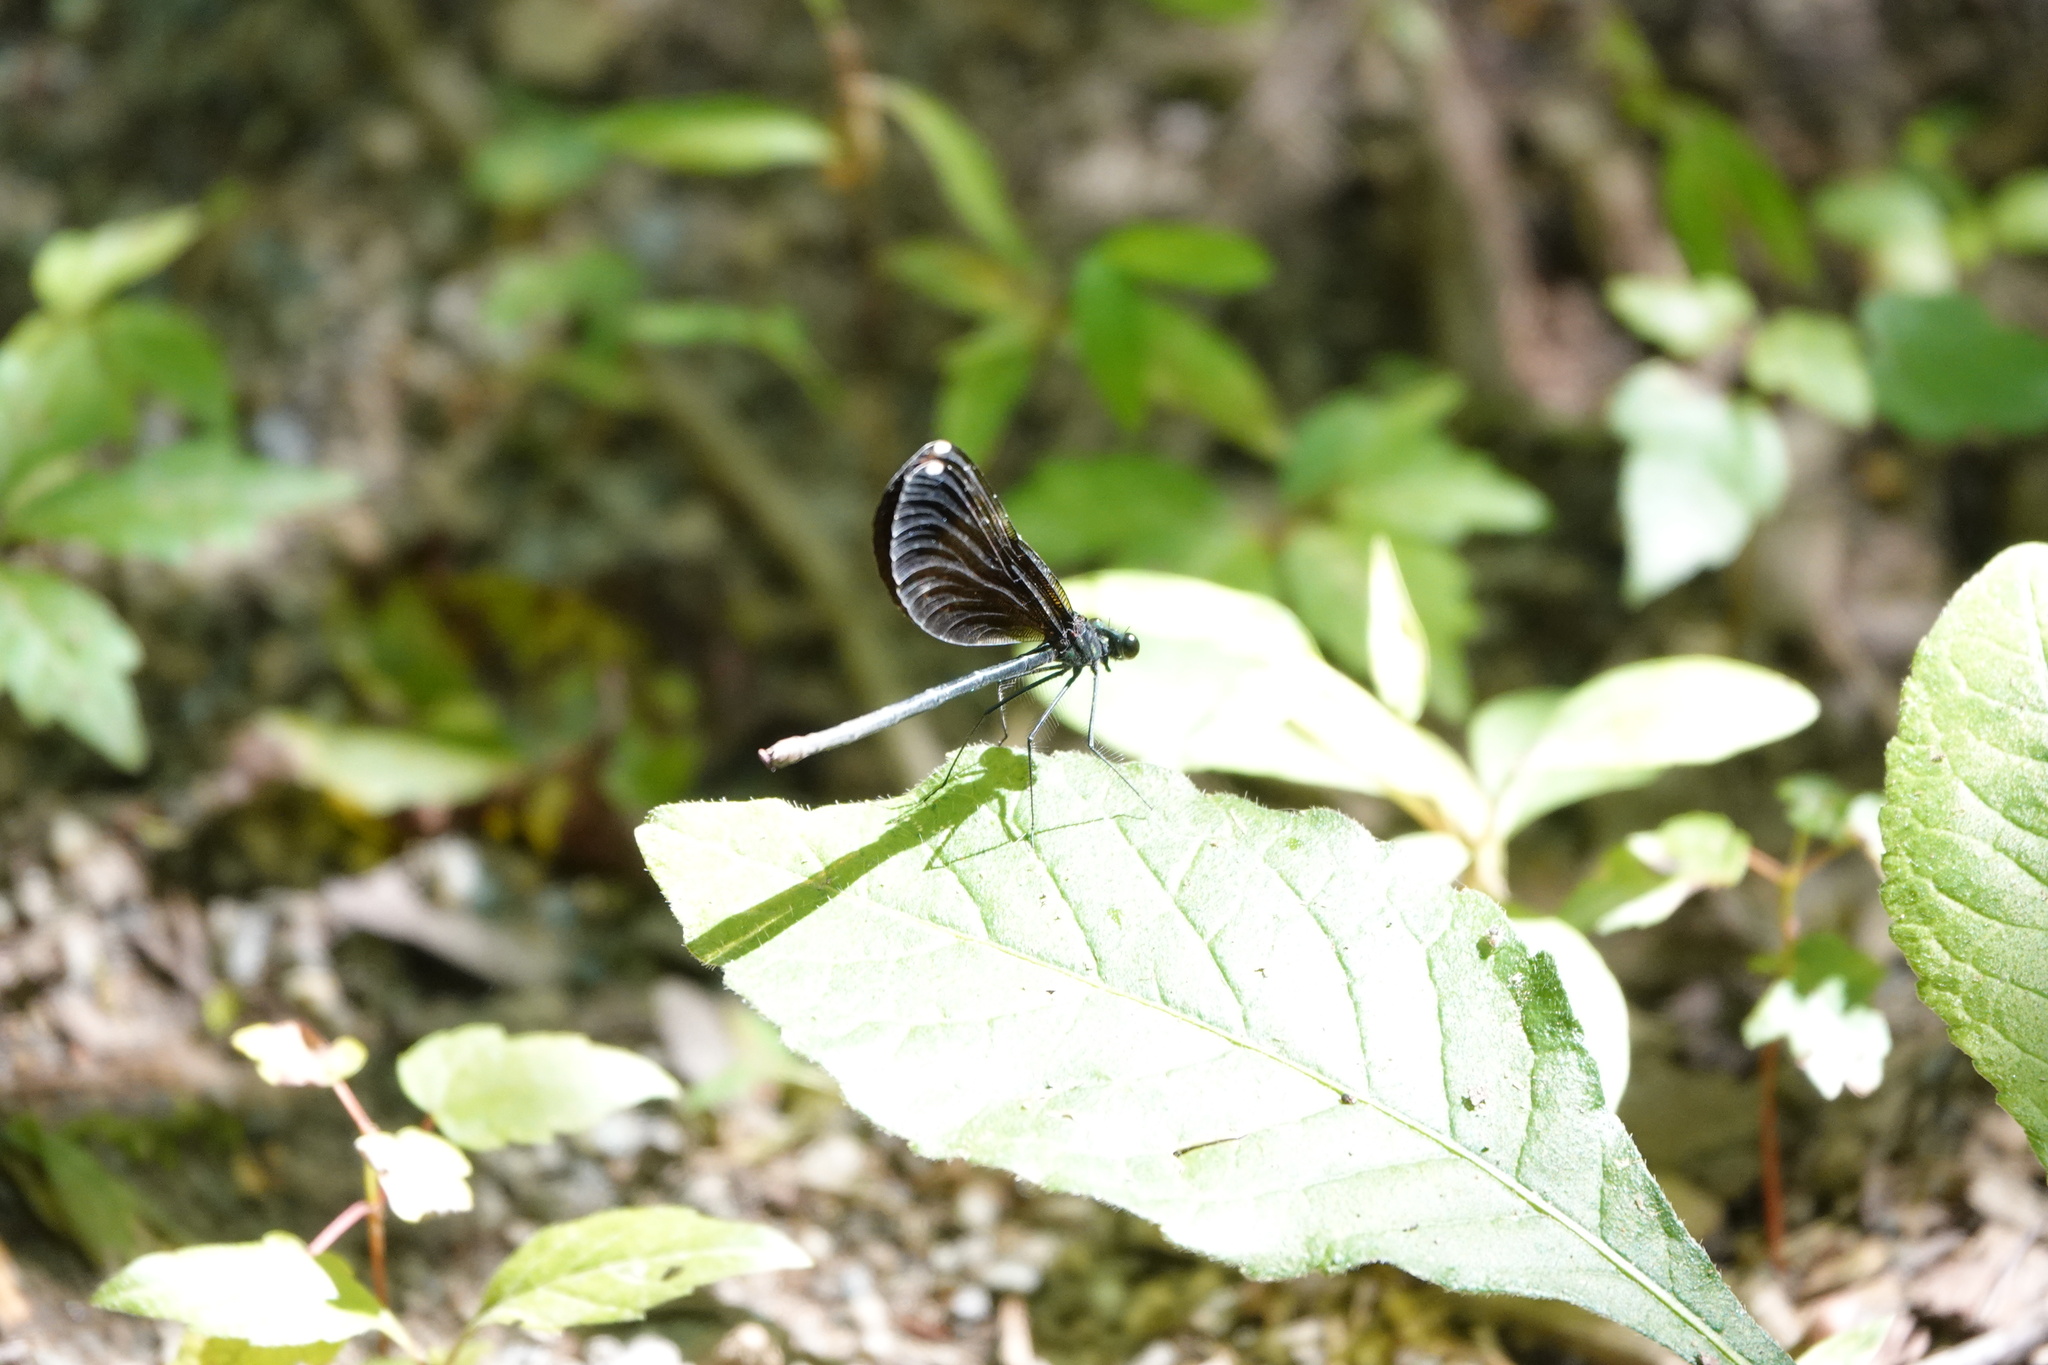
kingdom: Animalia
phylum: Arthropoda
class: Insecta
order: Odonata
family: Calopterygidae
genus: Calopteryx
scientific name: Calopteryx maculata
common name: Ebony jewelwing
